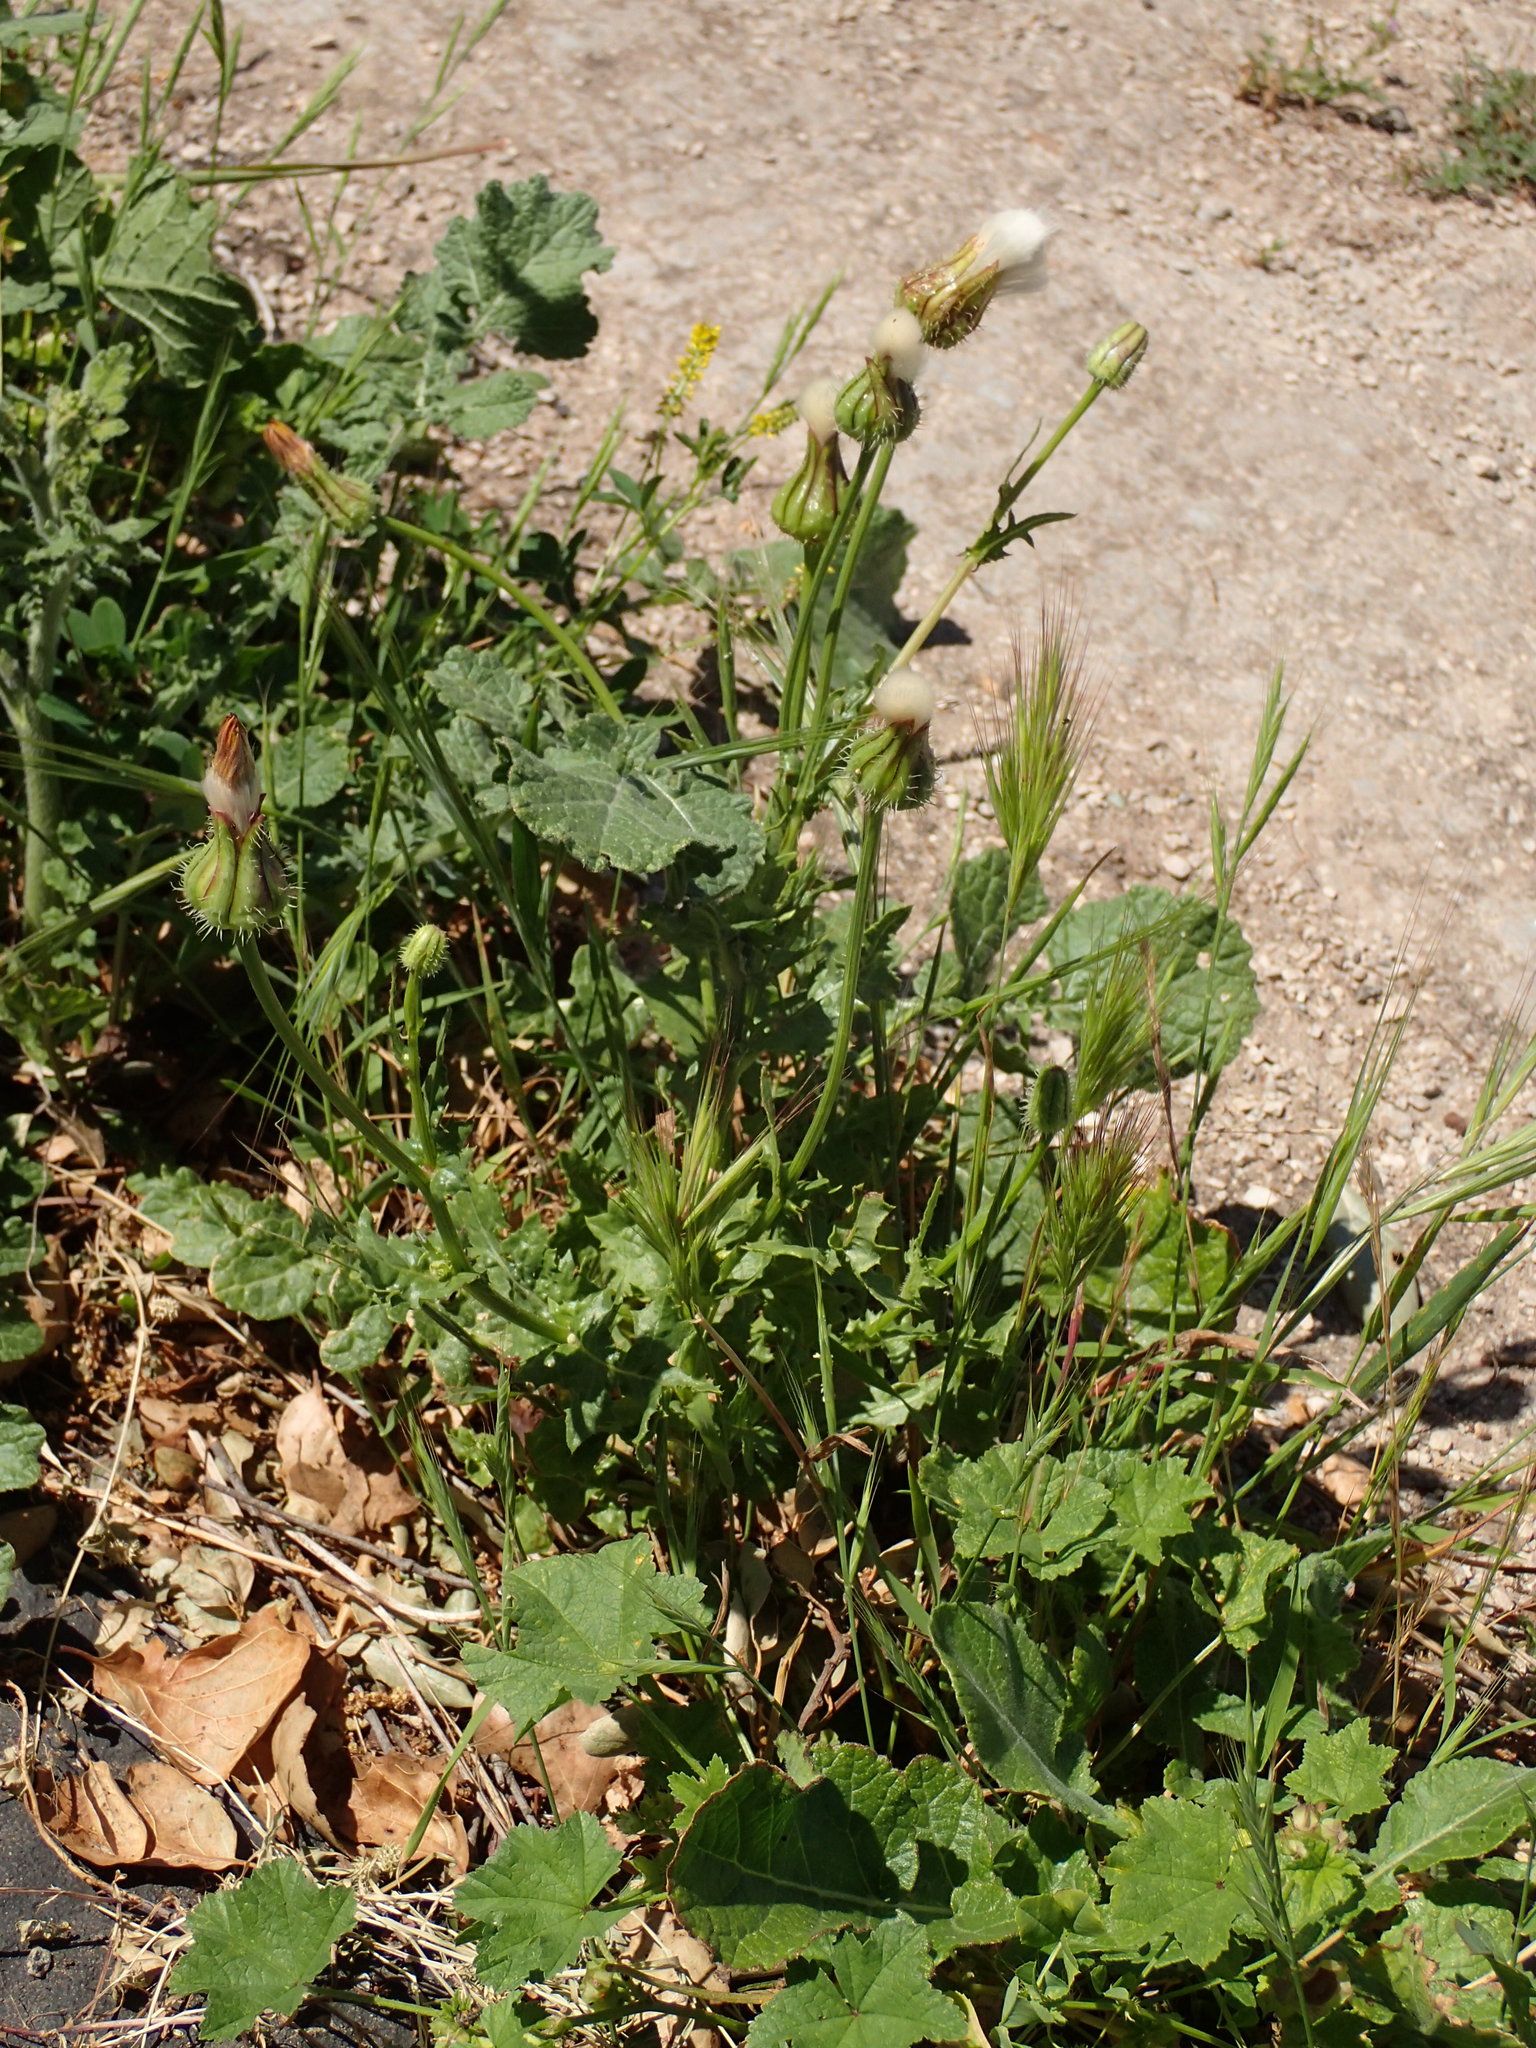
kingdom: Plantae
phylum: Tracheophyta
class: Magnoliopsida
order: Asterales
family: Asteraceae
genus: Urospermum
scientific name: Urospermum picroides
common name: False hawkbit
